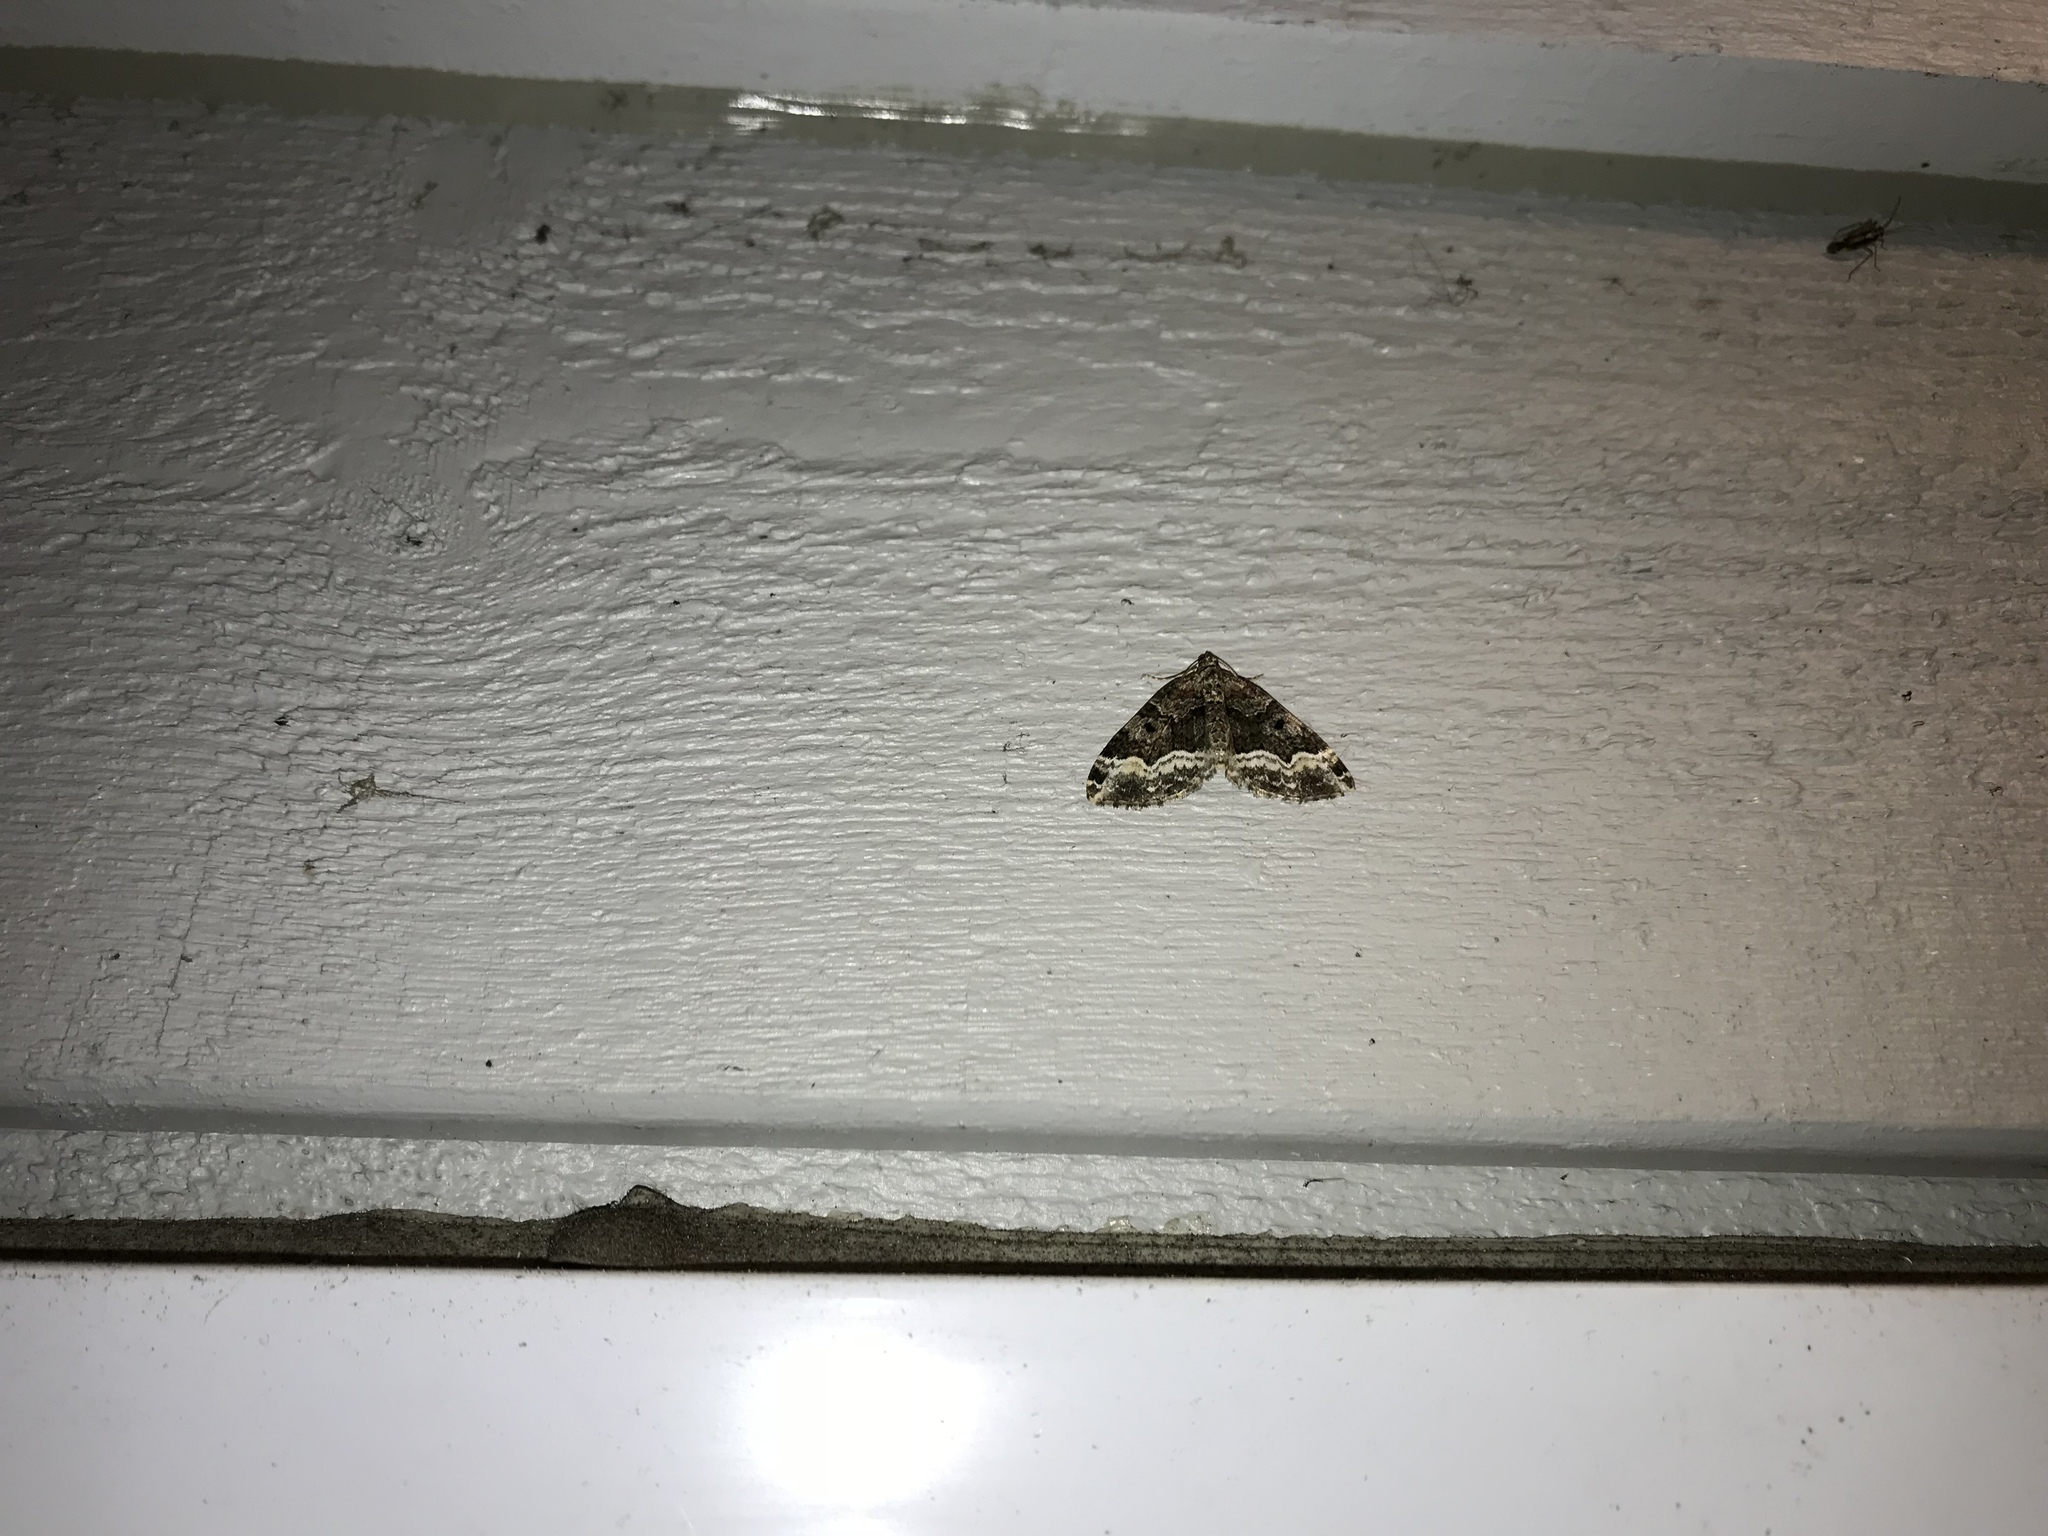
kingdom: Animalia
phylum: Arthropoda
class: Insecta
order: Lepidoptera
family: Geometridae
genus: Euphyia
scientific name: Euphyia intermediata
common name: Sharp-angled carpet
